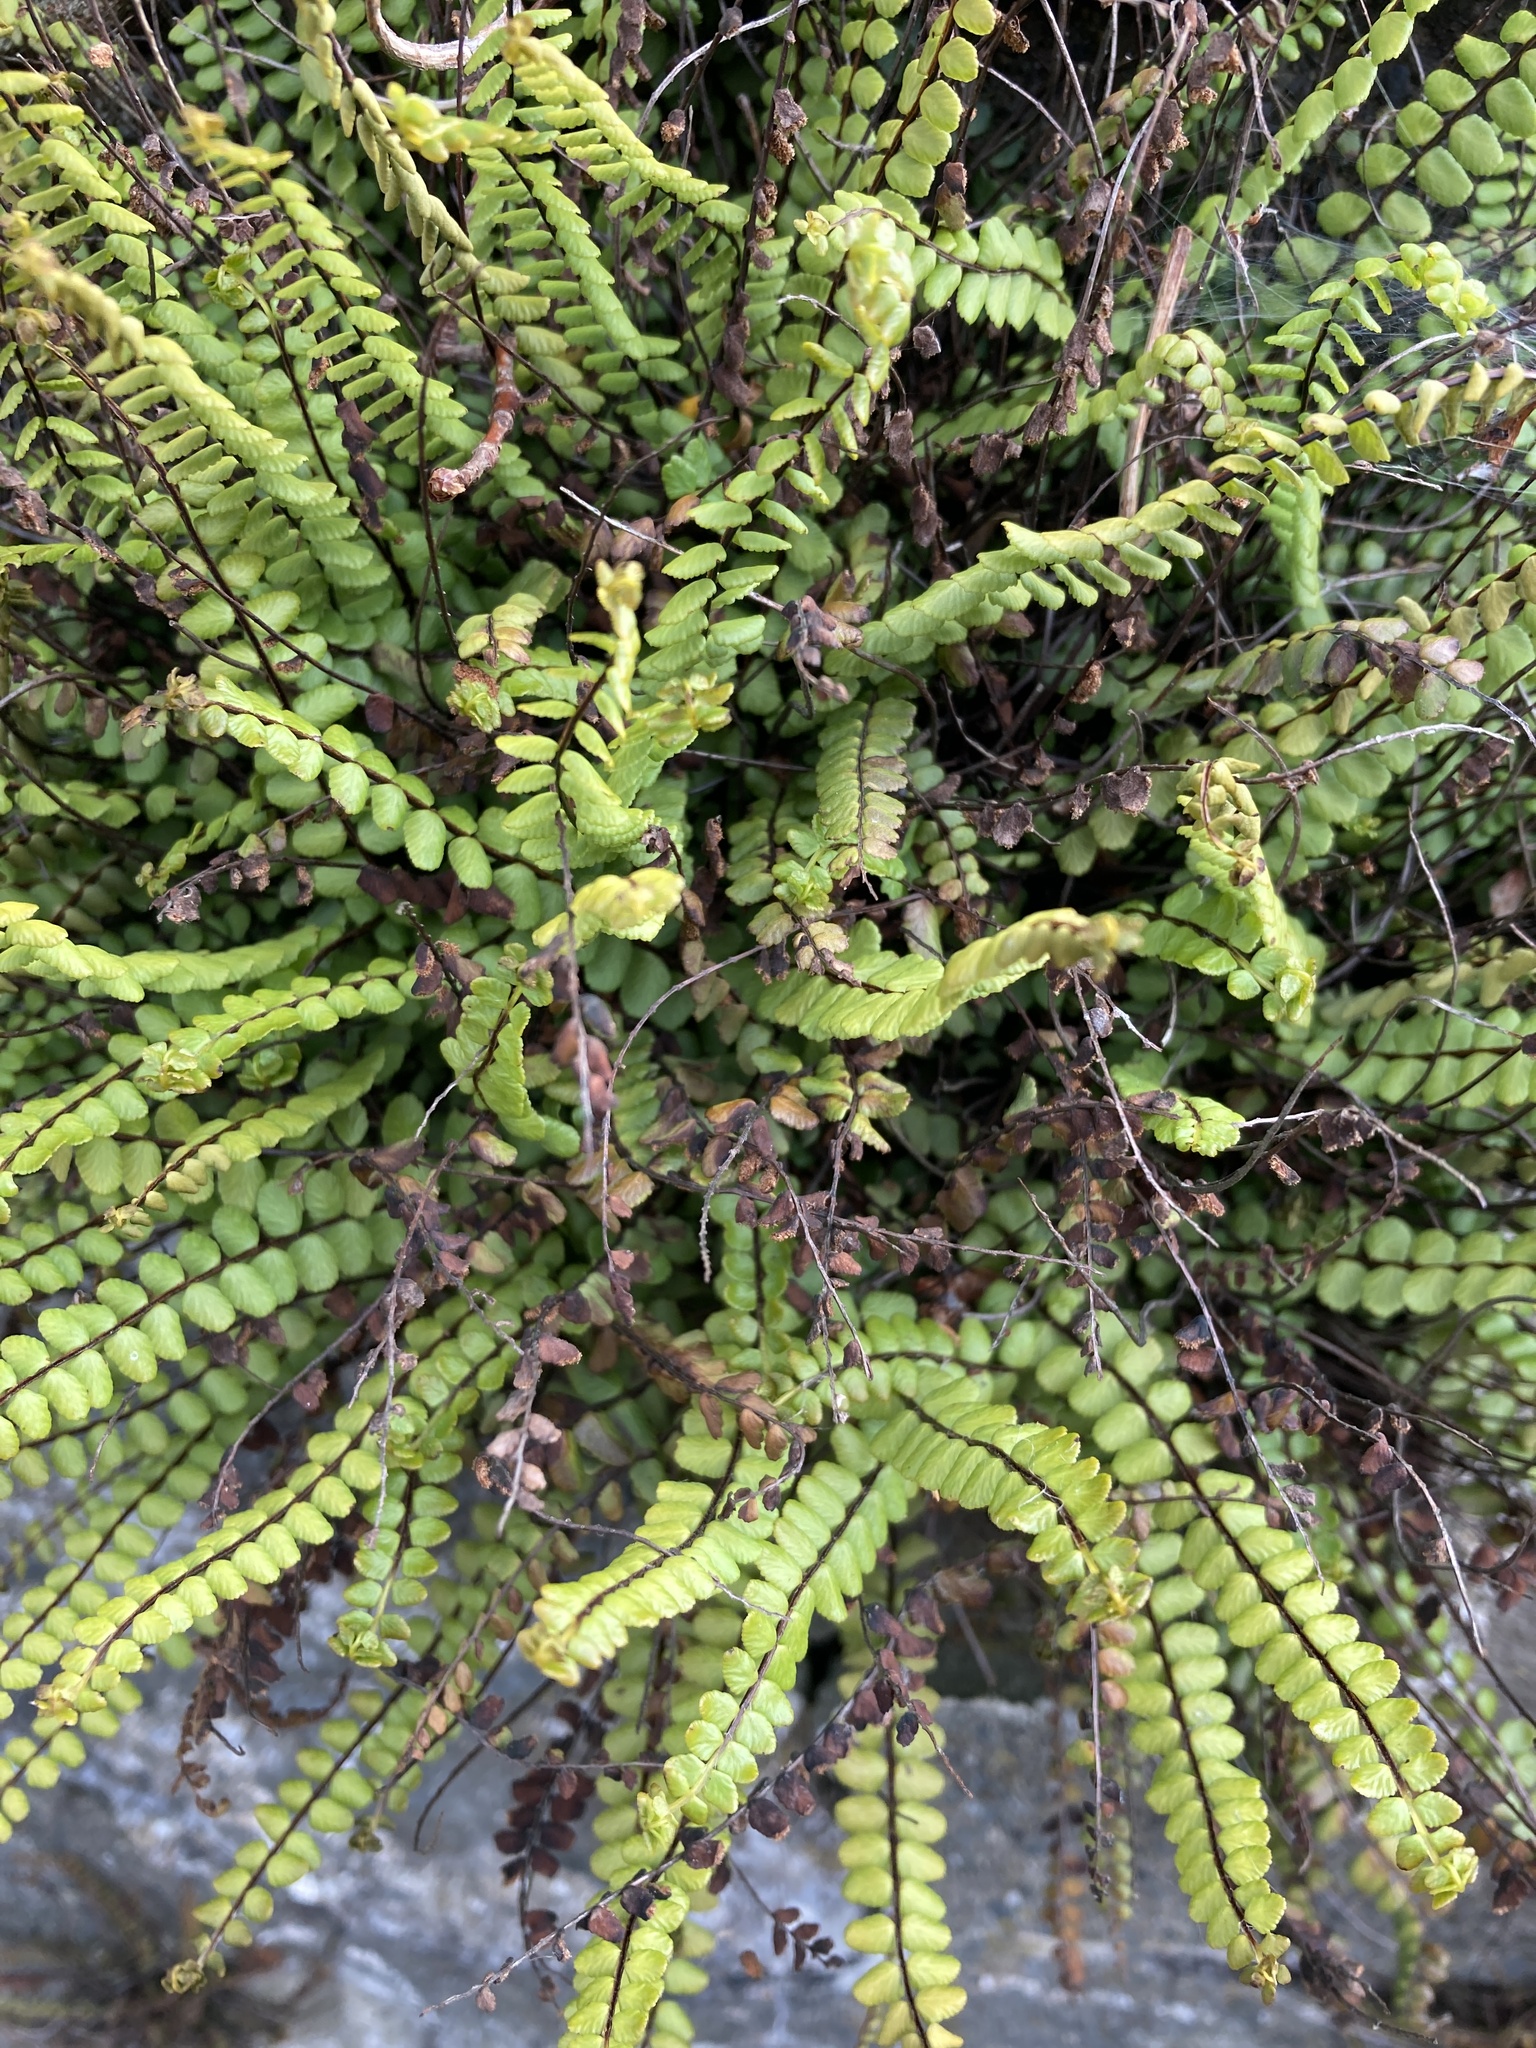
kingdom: Plantae
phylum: Tracheophyta
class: Polypodiopsida
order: Polypodiales
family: Aspleniaceae
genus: Asplenium
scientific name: Asplenium trichomanes
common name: Maidenhair spleenwort
